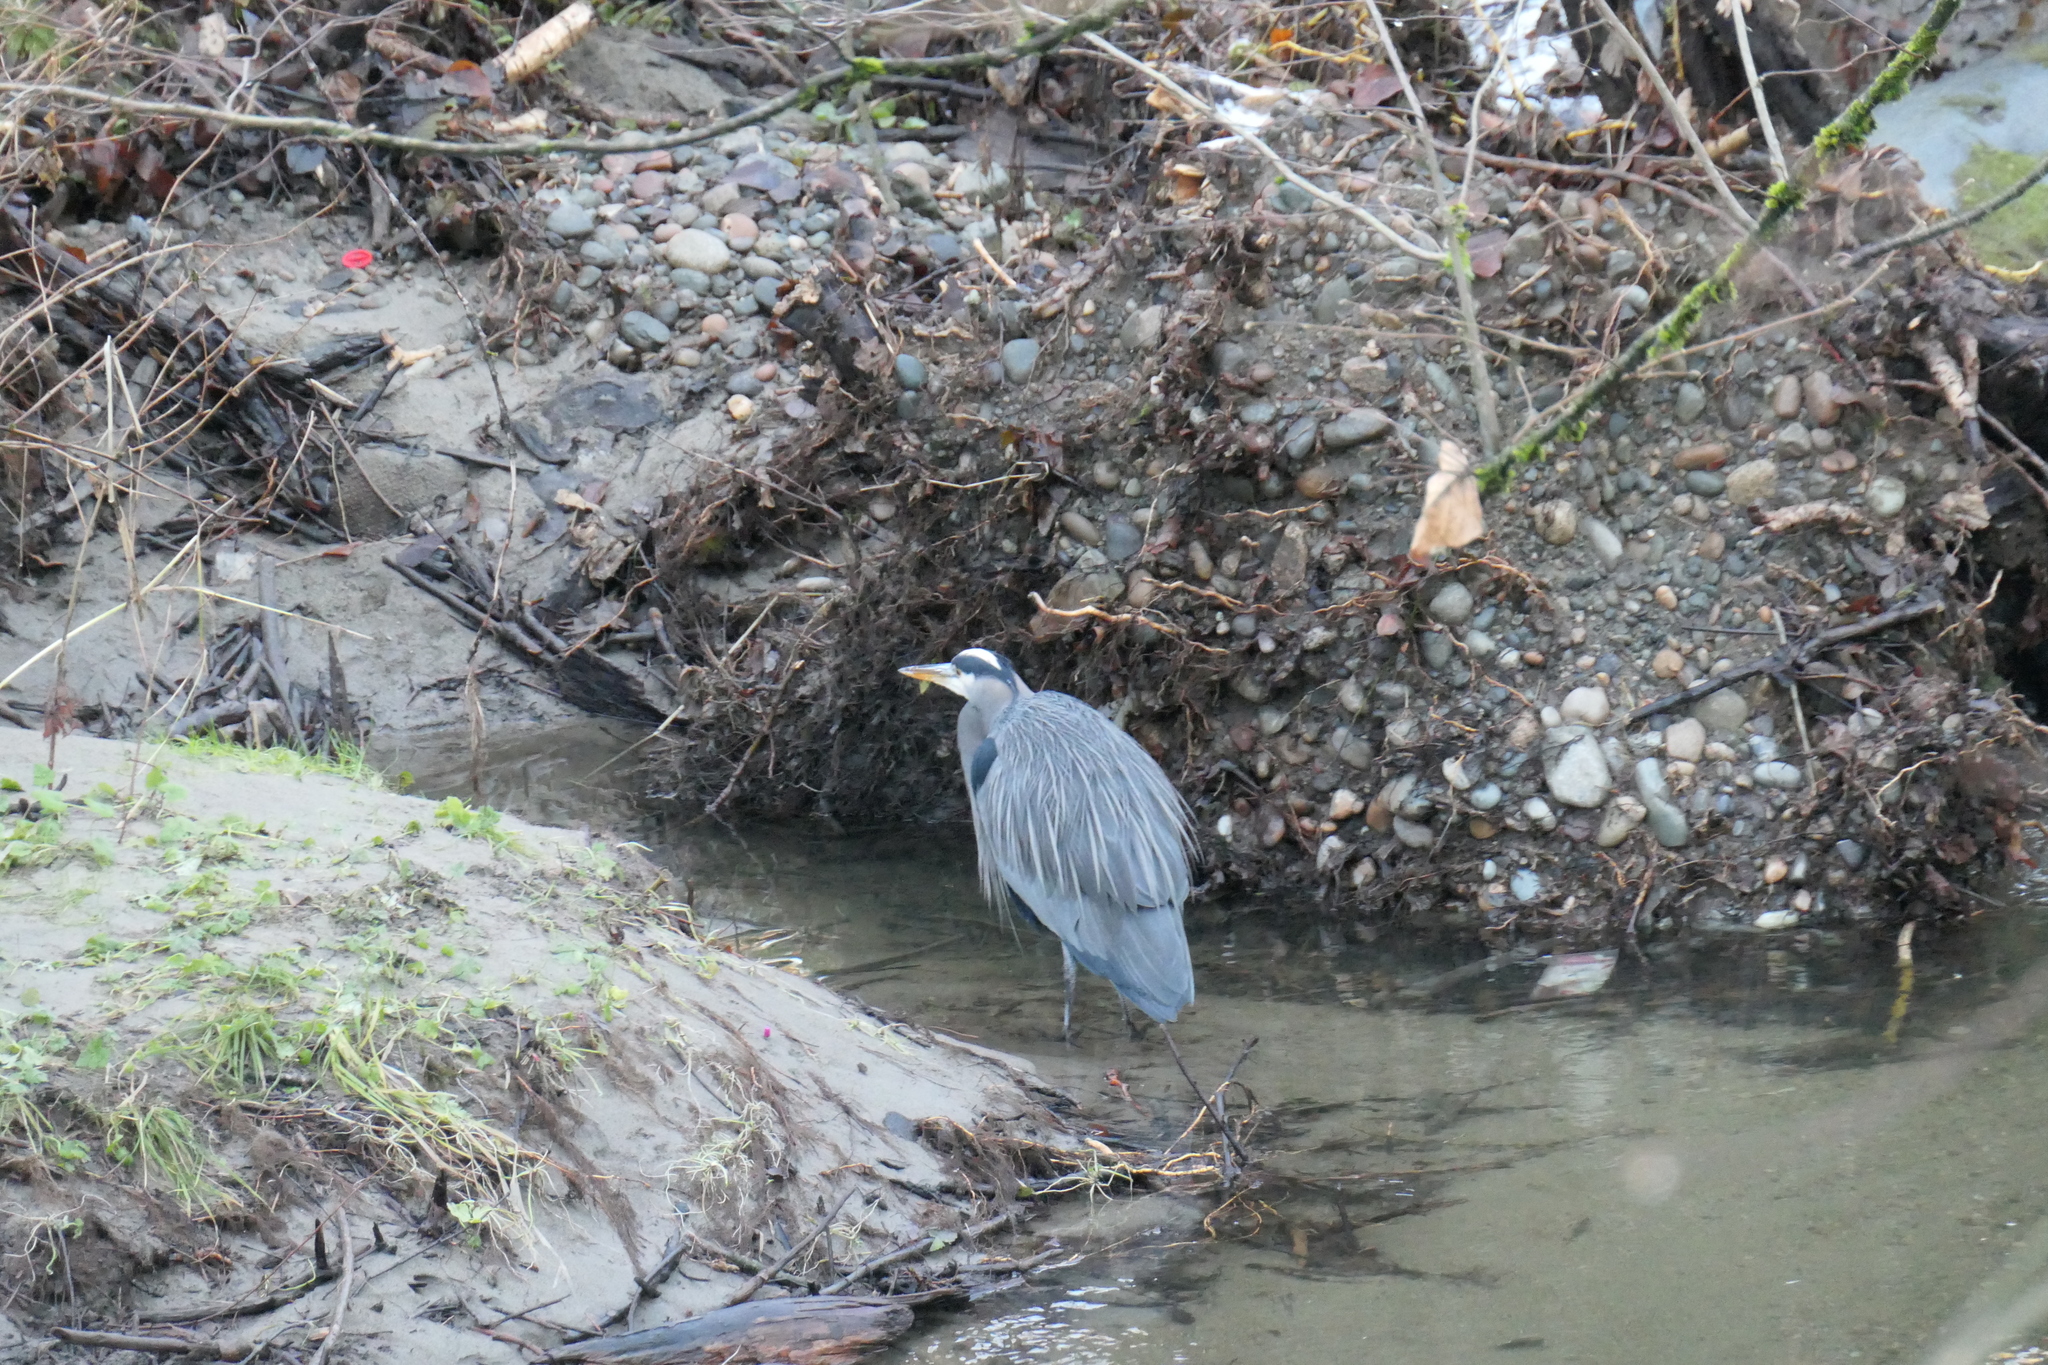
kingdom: Animalia
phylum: Chordata
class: Aves
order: Pelecaniformes
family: Ardeidae
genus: Ardea
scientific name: Ardea herodias
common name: Great blue heron
